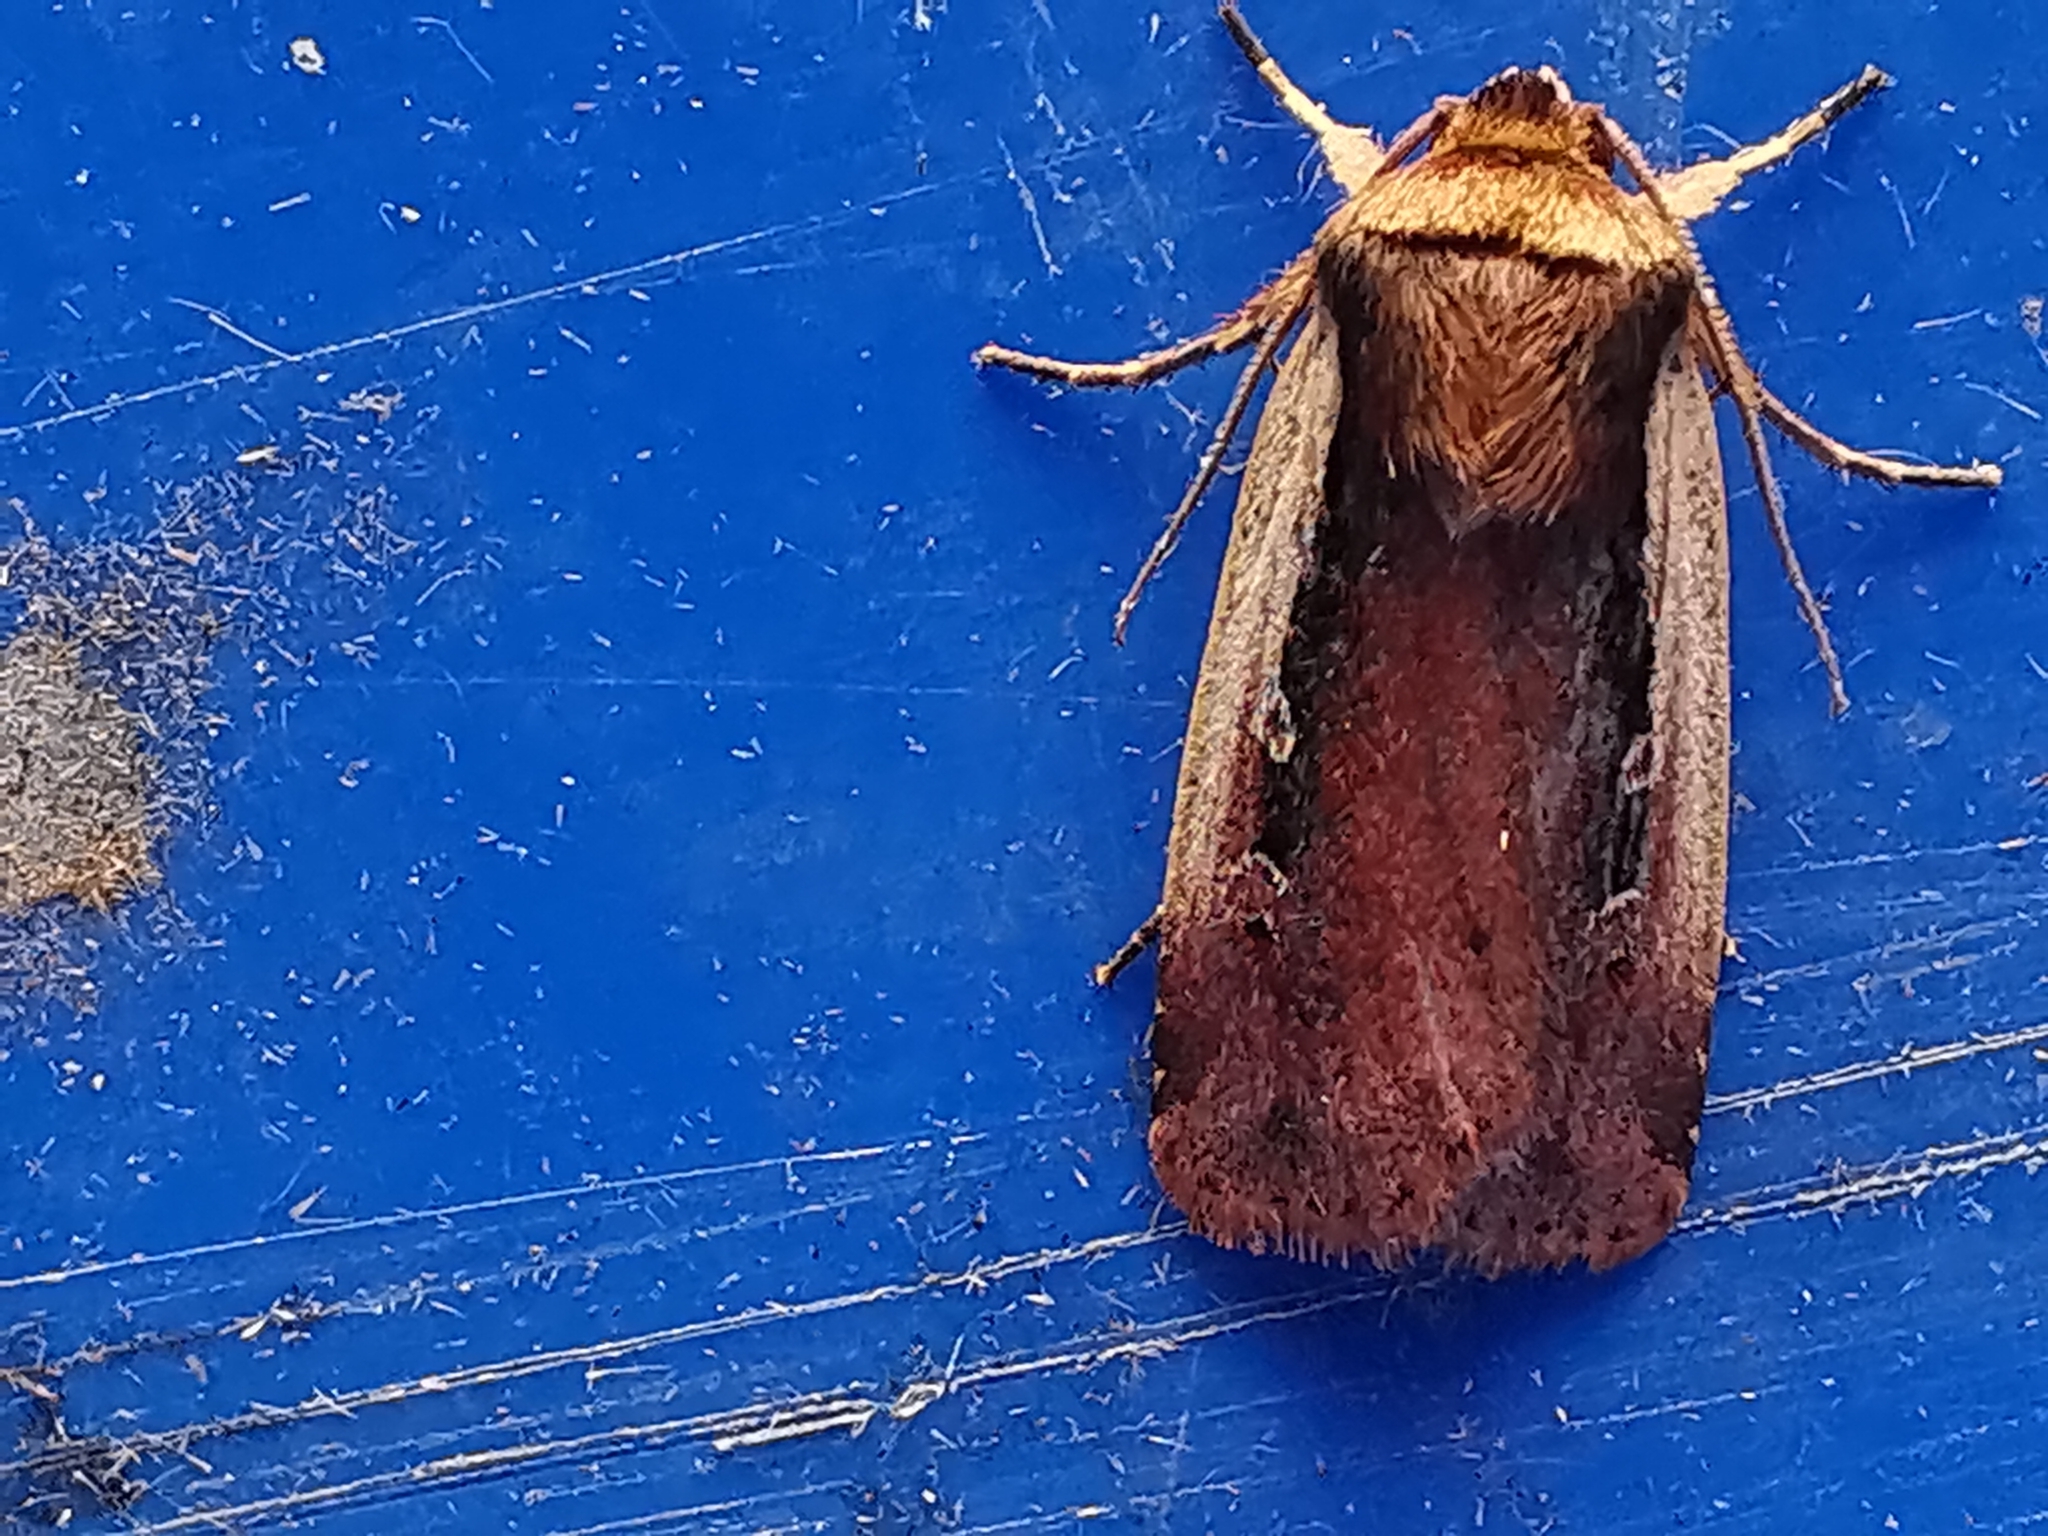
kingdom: Animalia
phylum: Arthropoda
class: Insecta
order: Lepidoptera
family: Noctuidae
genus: Ochropleura
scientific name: Ochropleura plecta
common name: Flame shoulder
